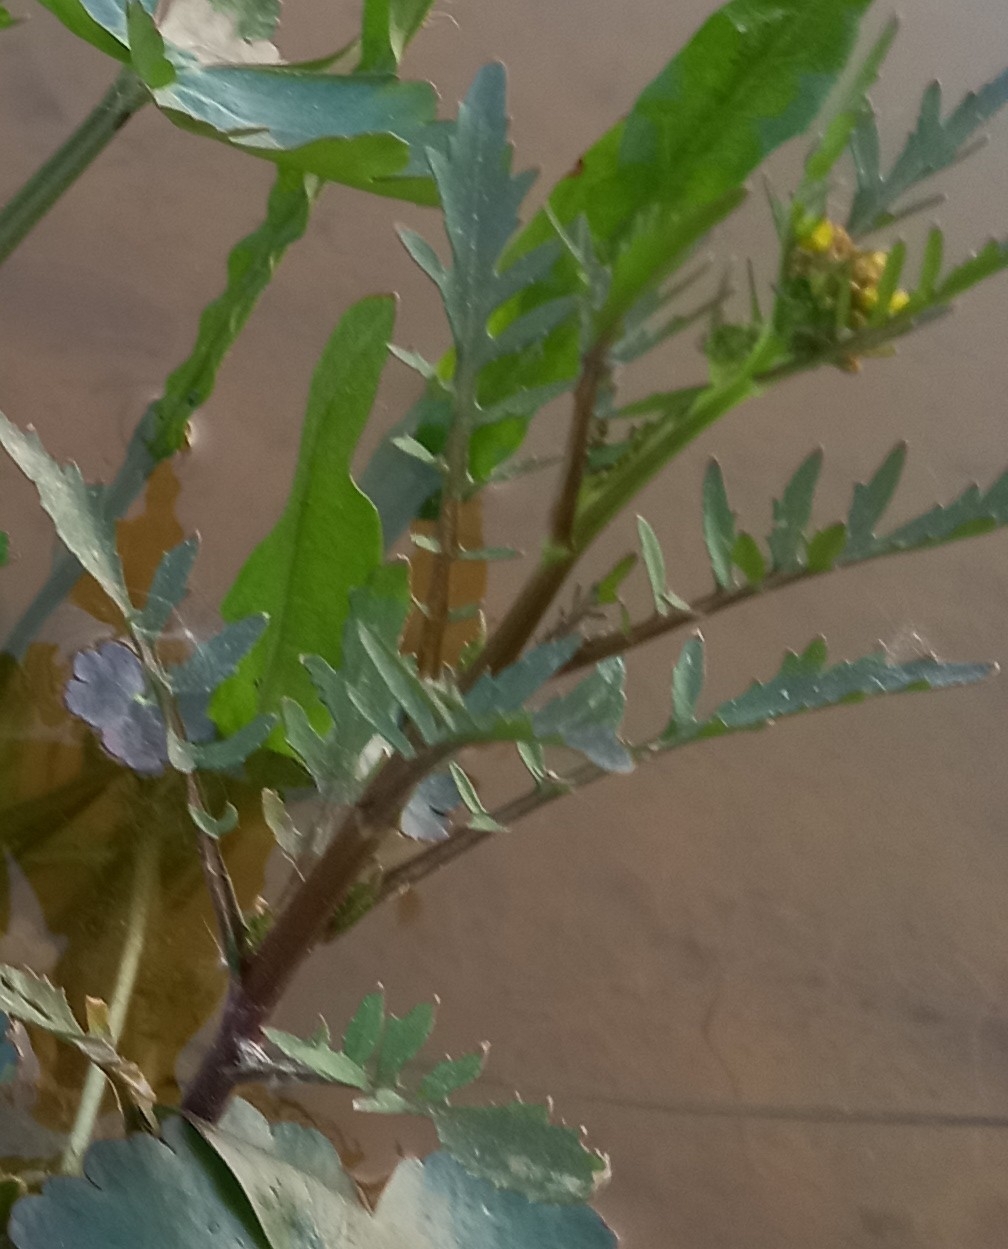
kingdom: Plantae
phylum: Tracheophyta
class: Magnoliopsida
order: Brassicales
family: Brassicaceae
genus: Rorippa
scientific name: Rorippa palustris
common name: Marsh yellow-cress
